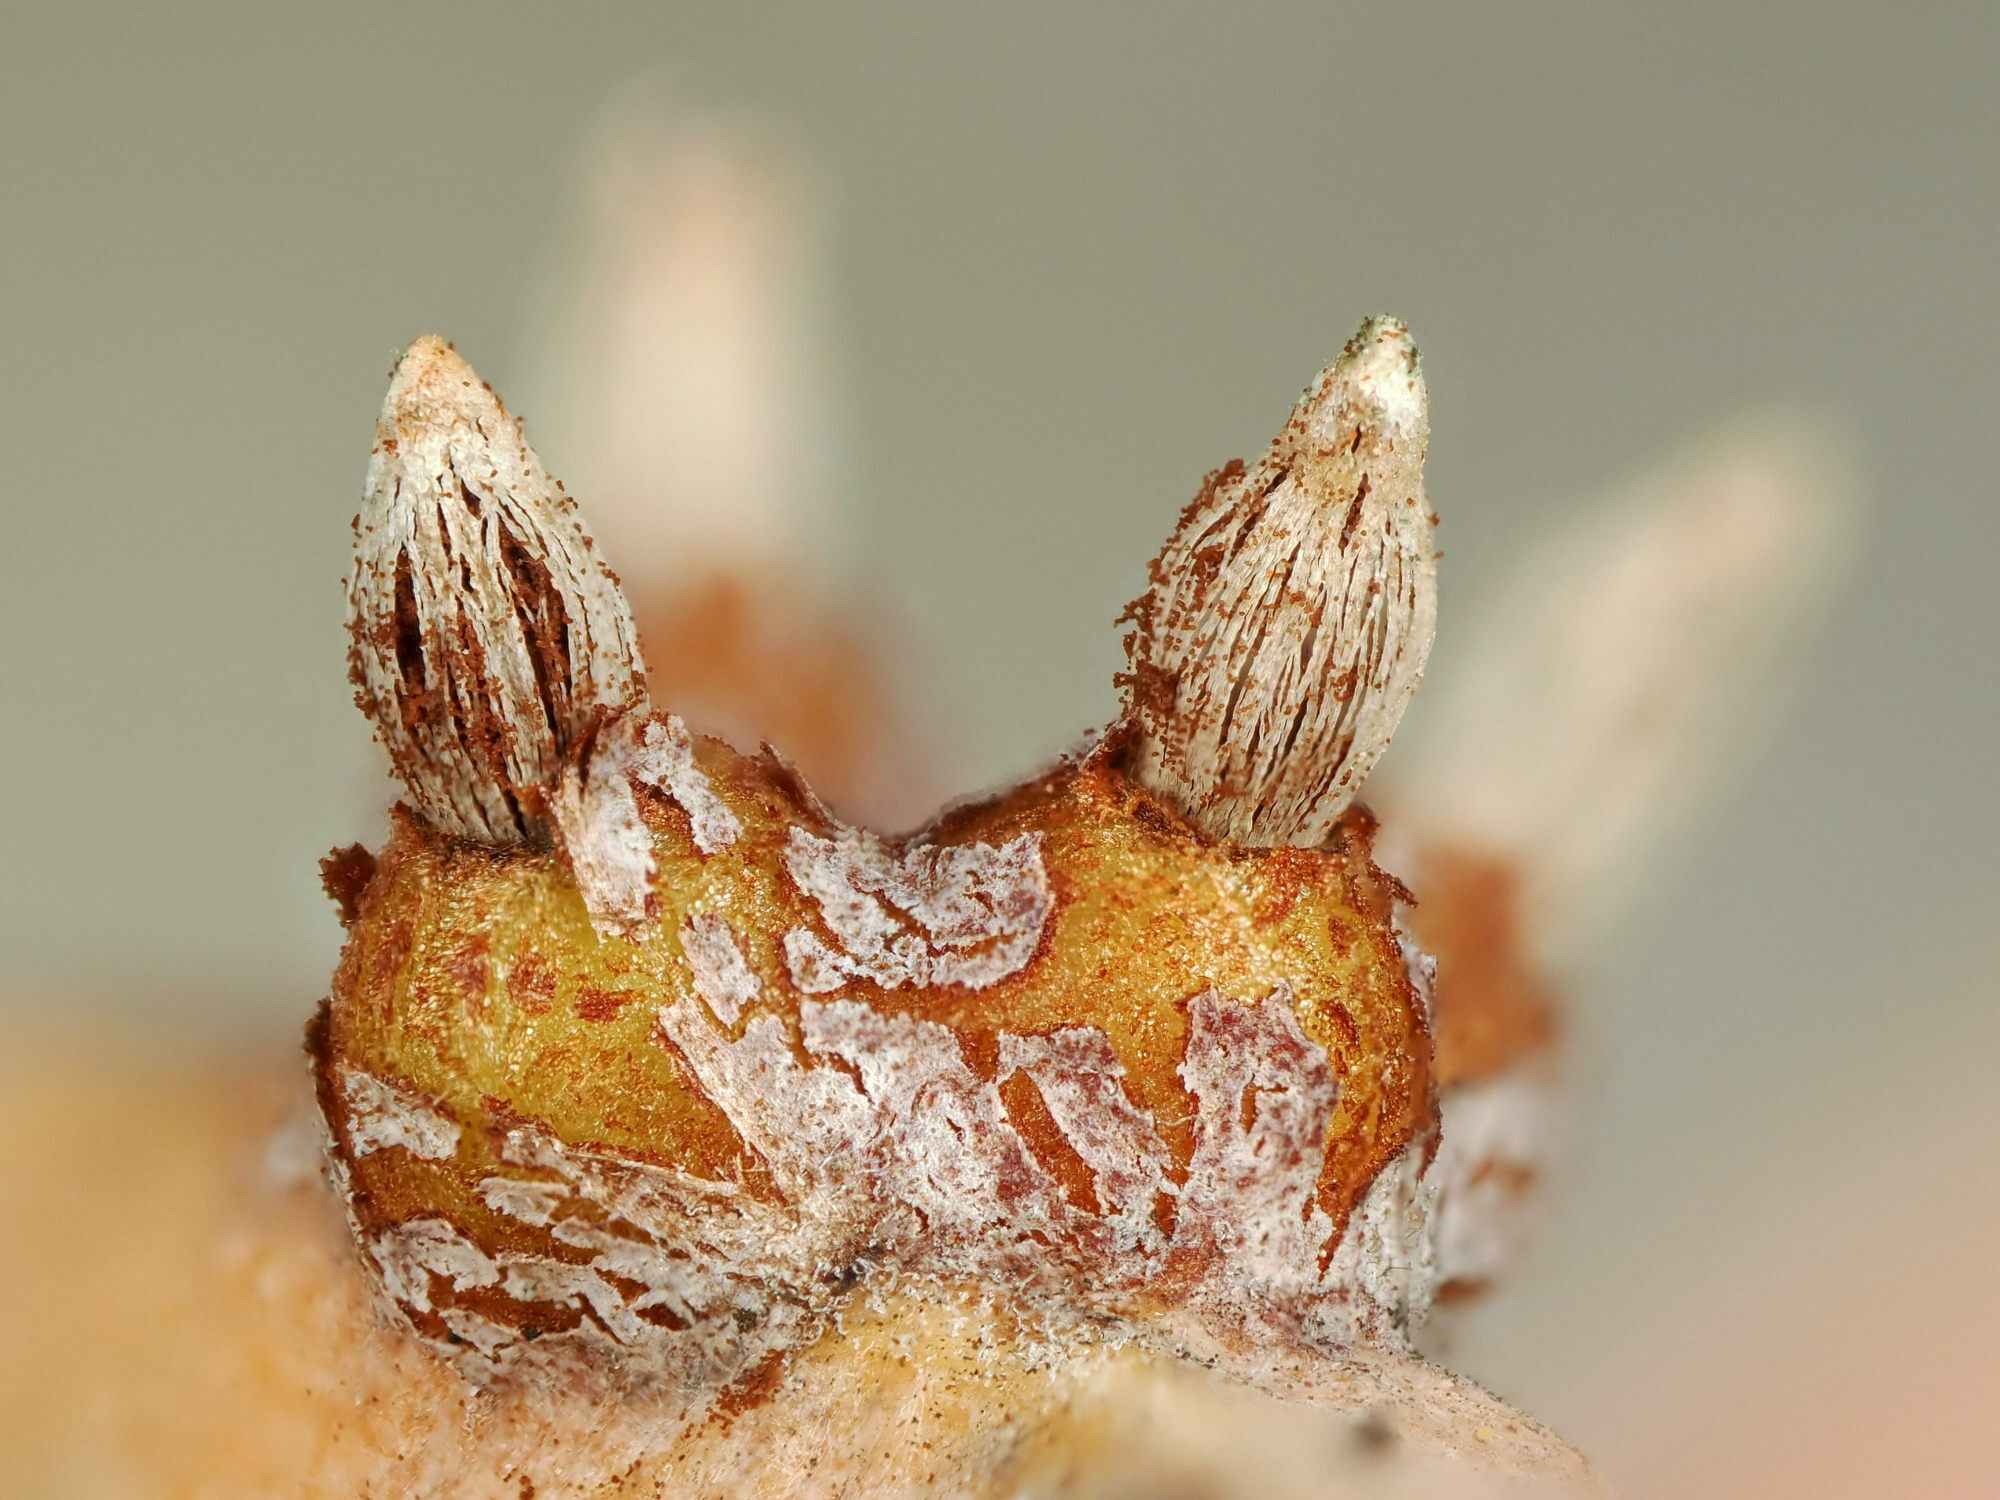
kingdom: Fungi
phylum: Basidiomycota
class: Pucciniomycetes
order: Pucciniales
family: Gymnosporangiaceae
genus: Gymnosporangium
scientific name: Gymnosporangium sabinae
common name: Pear trellis rust fungus
